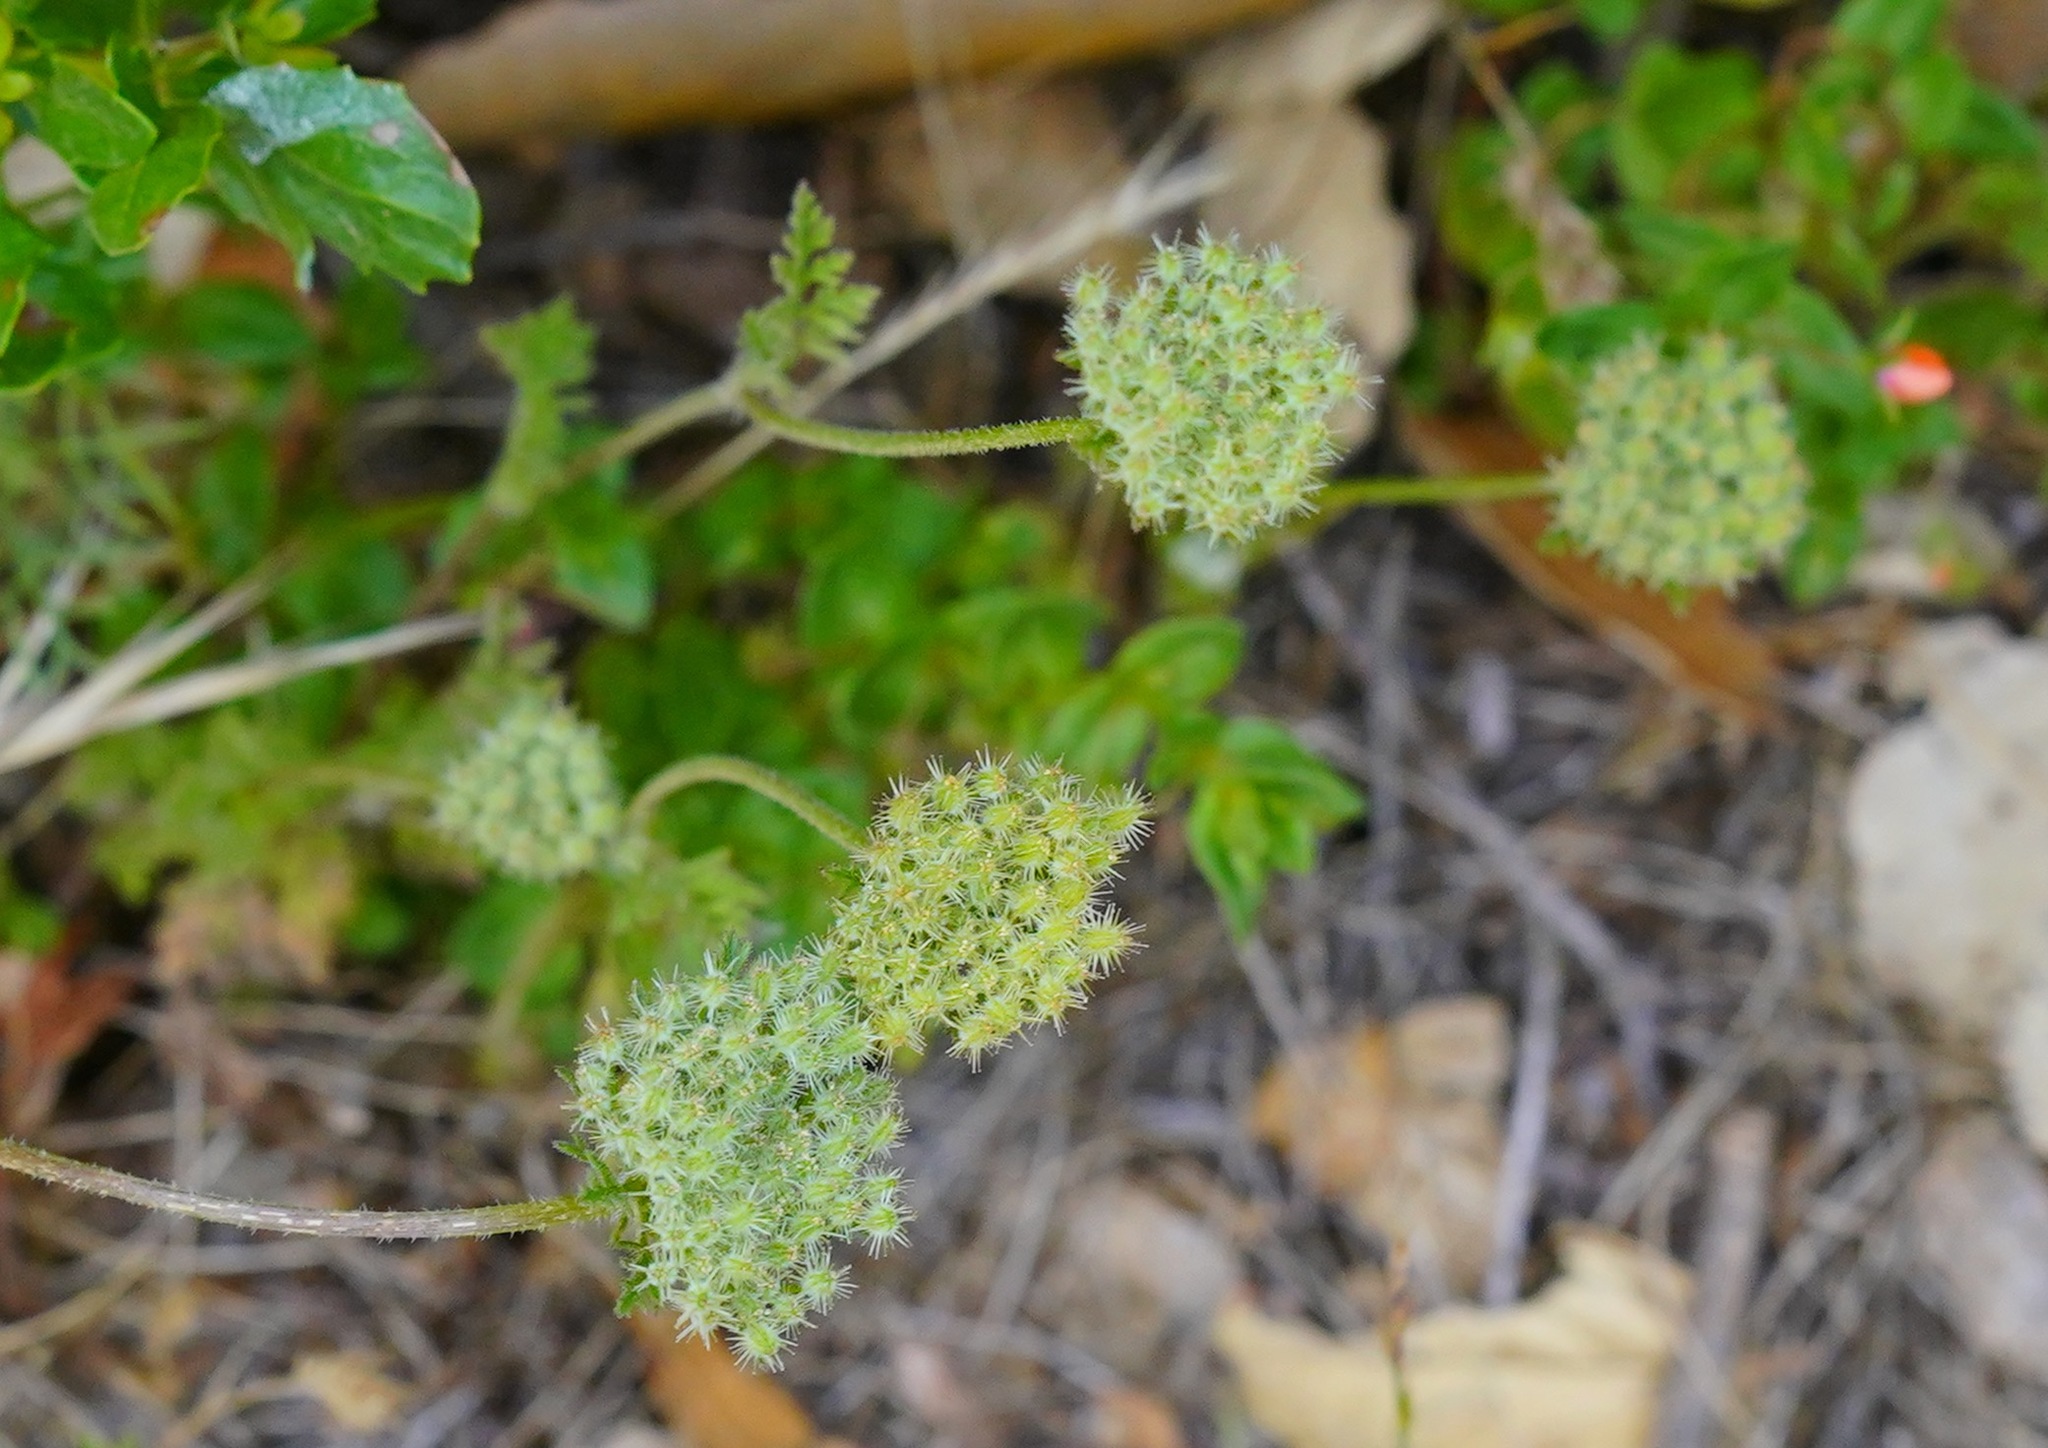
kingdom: Plantae
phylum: Tracheophyta
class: Magnoliopsida
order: Apiales
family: Apiaceae
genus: Daucus
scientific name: Daucus pusillus
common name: Southwest wild carrot
